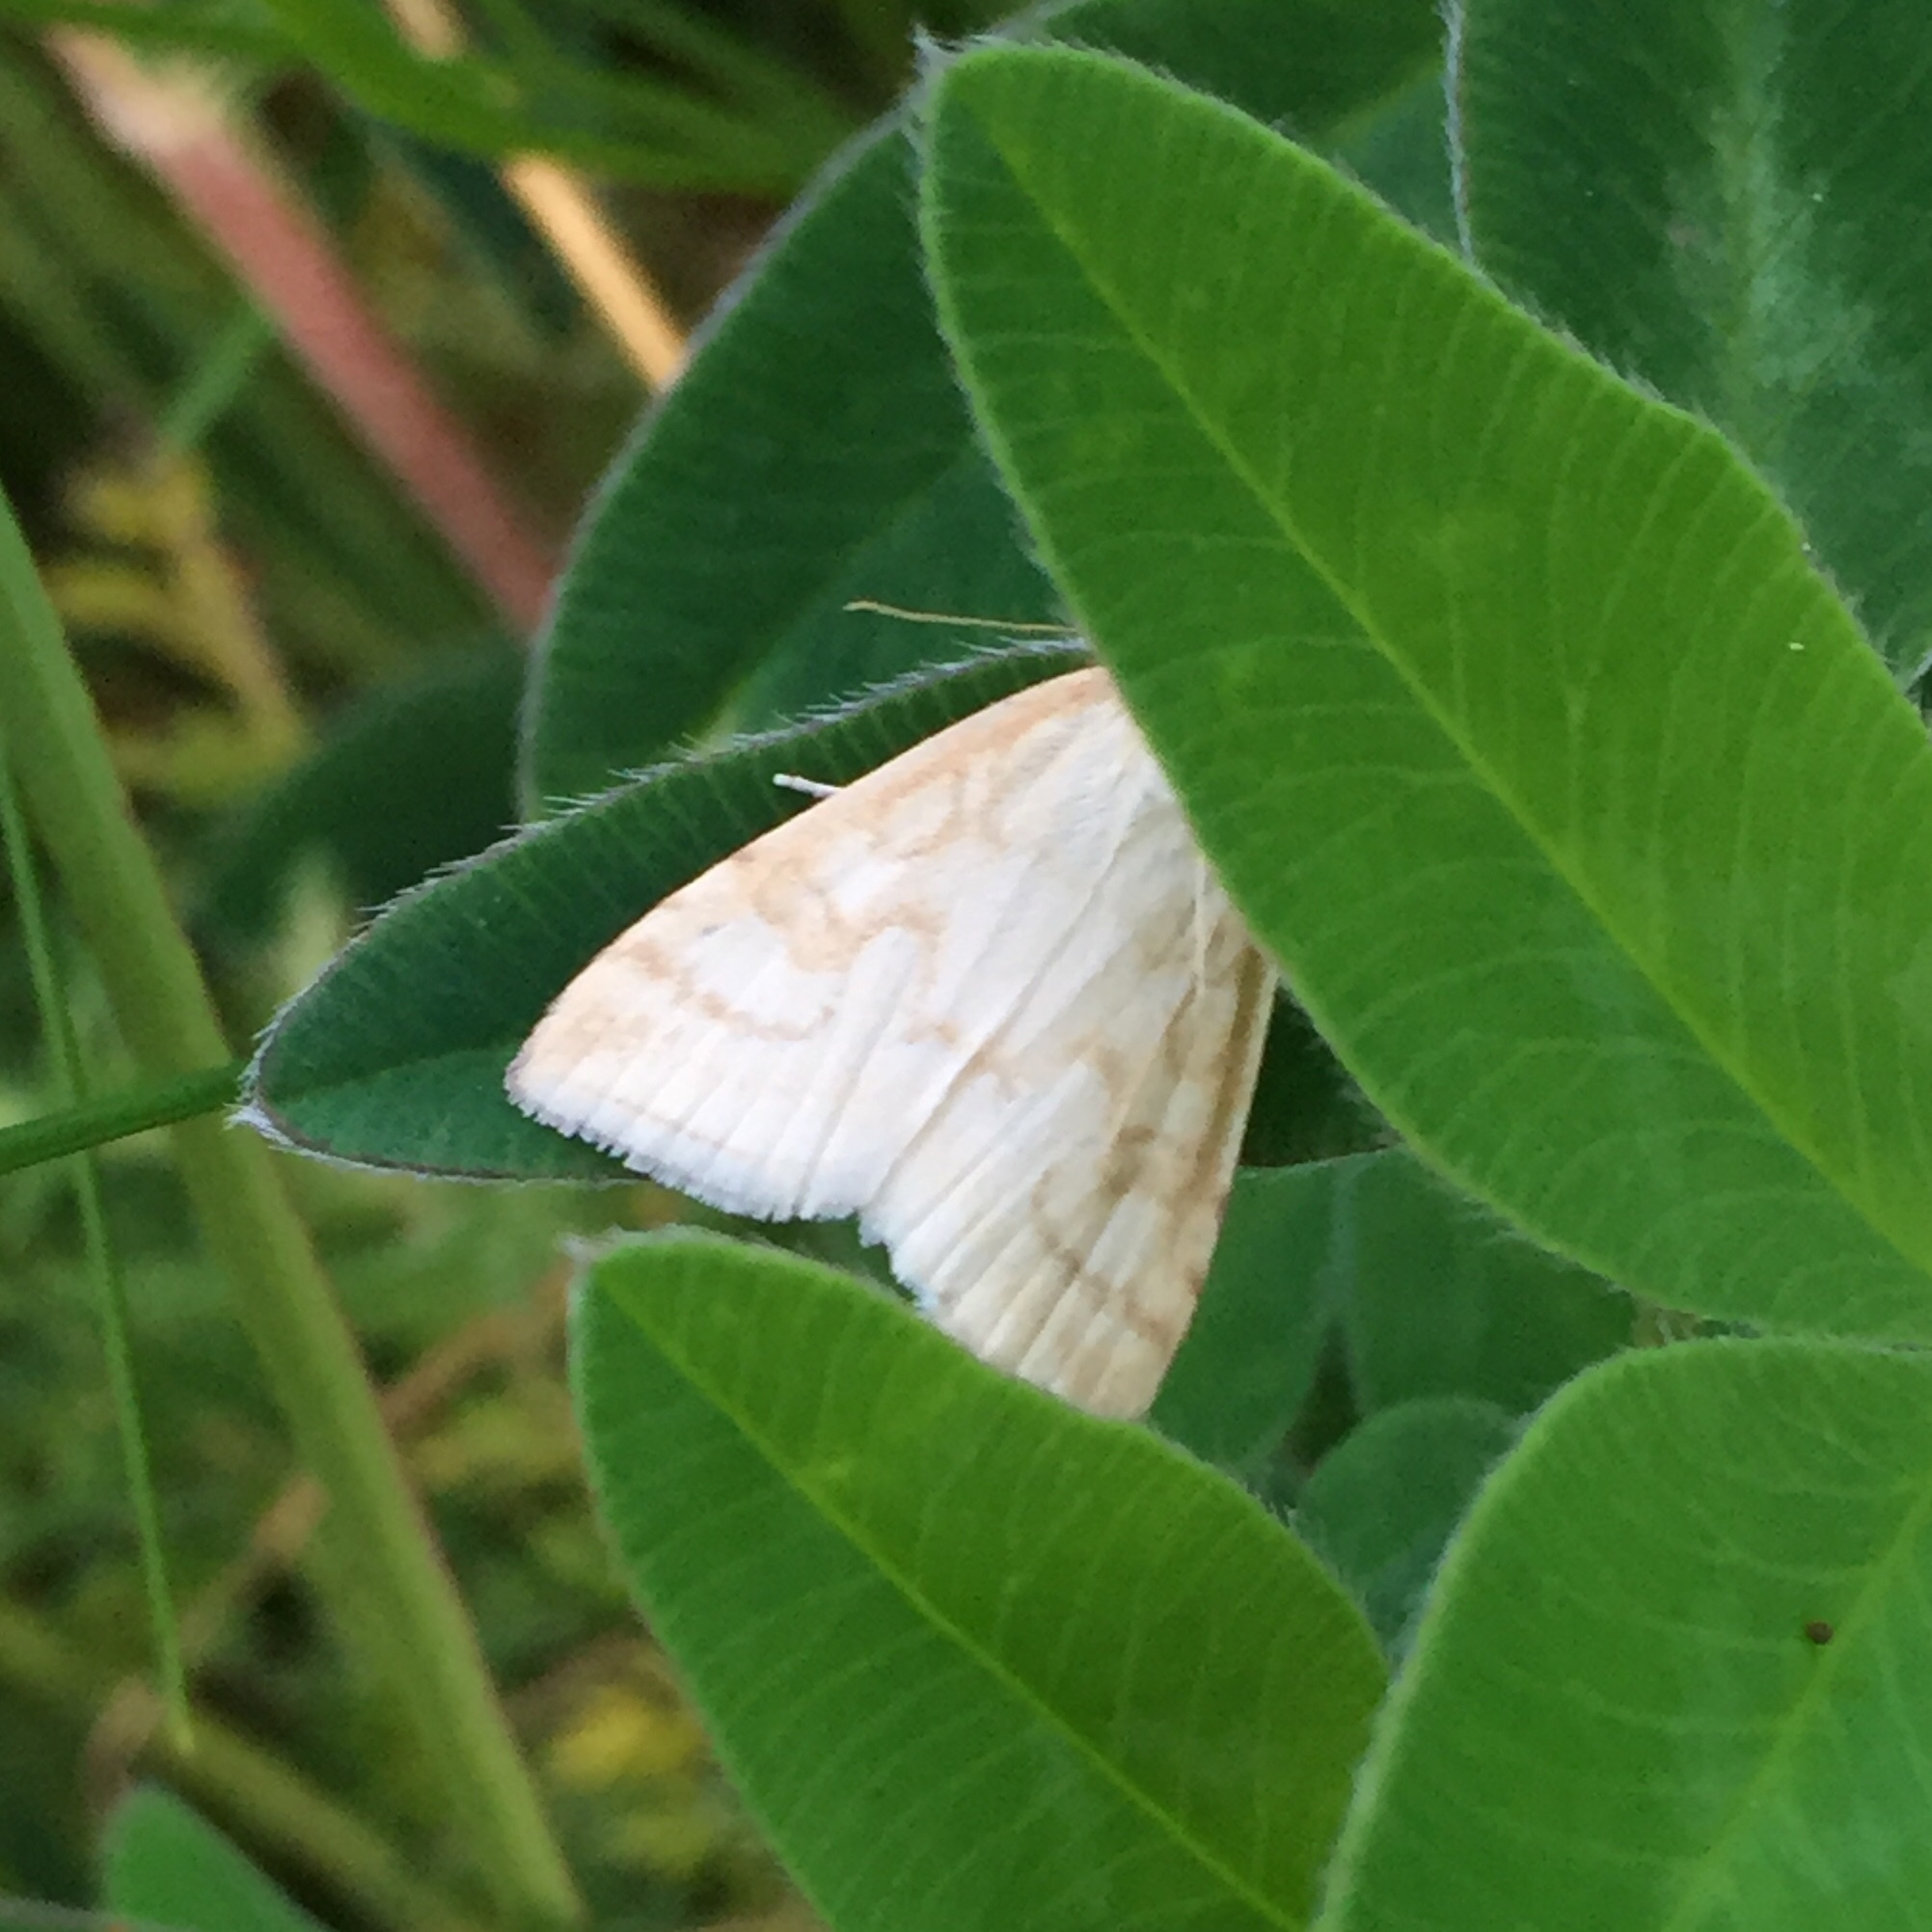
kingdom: Animalia
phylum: Arthropoda
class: Insecta
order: Lepidoptera
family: Crambidae
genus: Udea
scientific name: Udea lutealis
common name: Pale straw pearl
